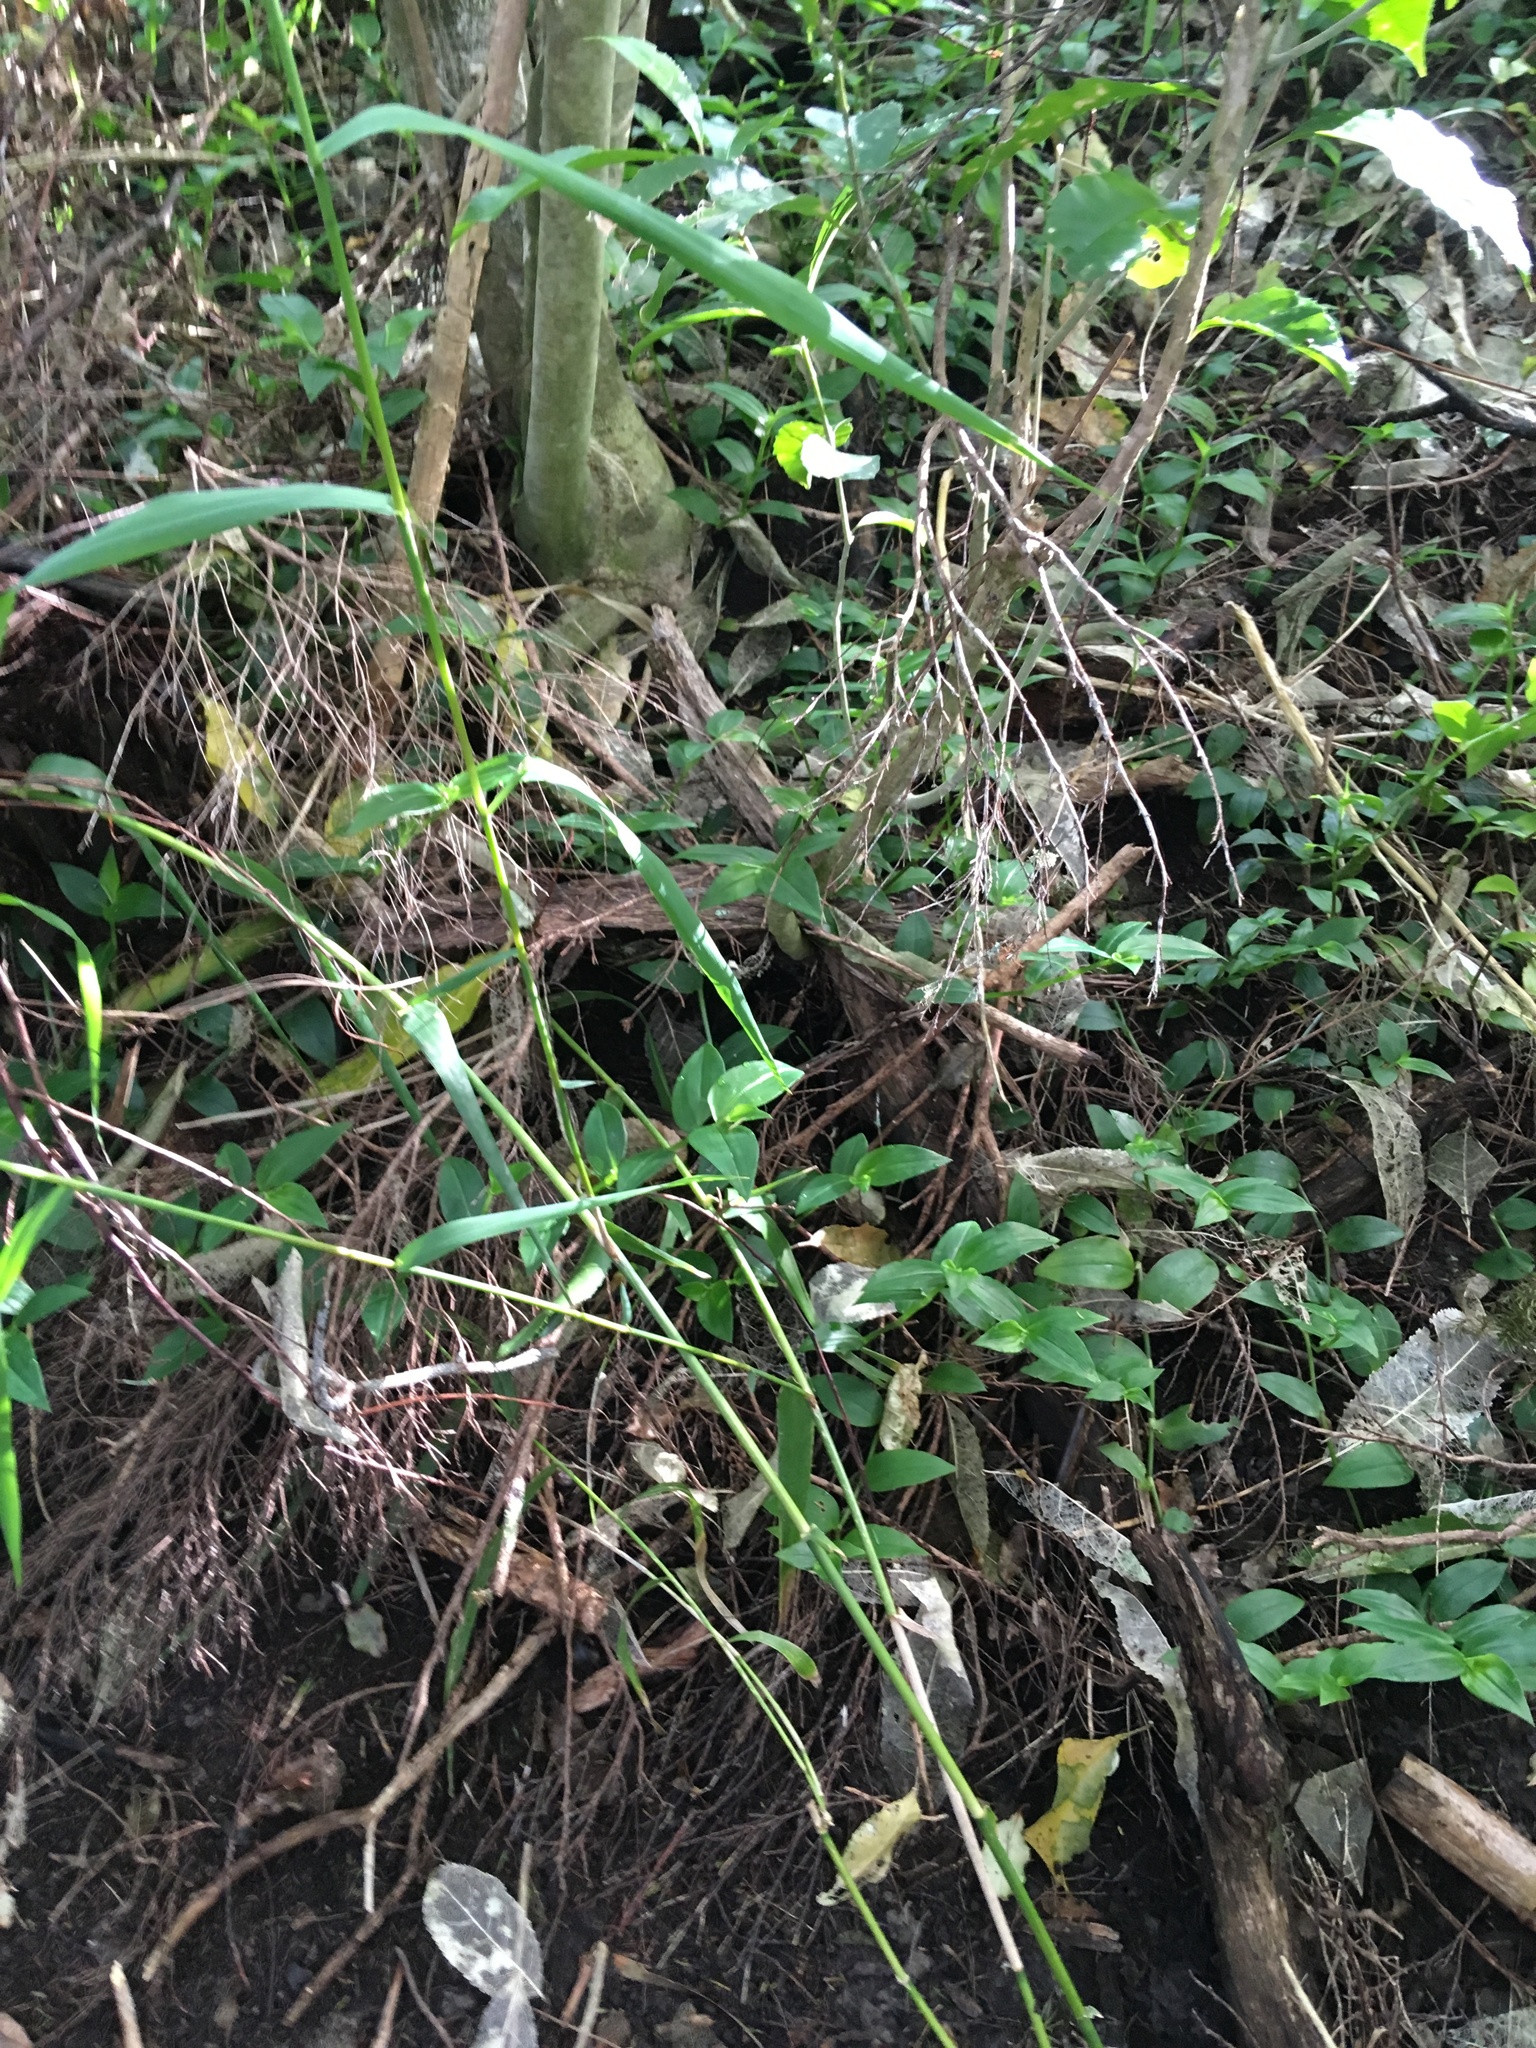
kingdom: Plantae
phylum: Tracheophyta
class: Liliopsida
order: Poales
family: Poaceae
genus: Arundo
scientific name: Arundo donax
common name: Giant reed
